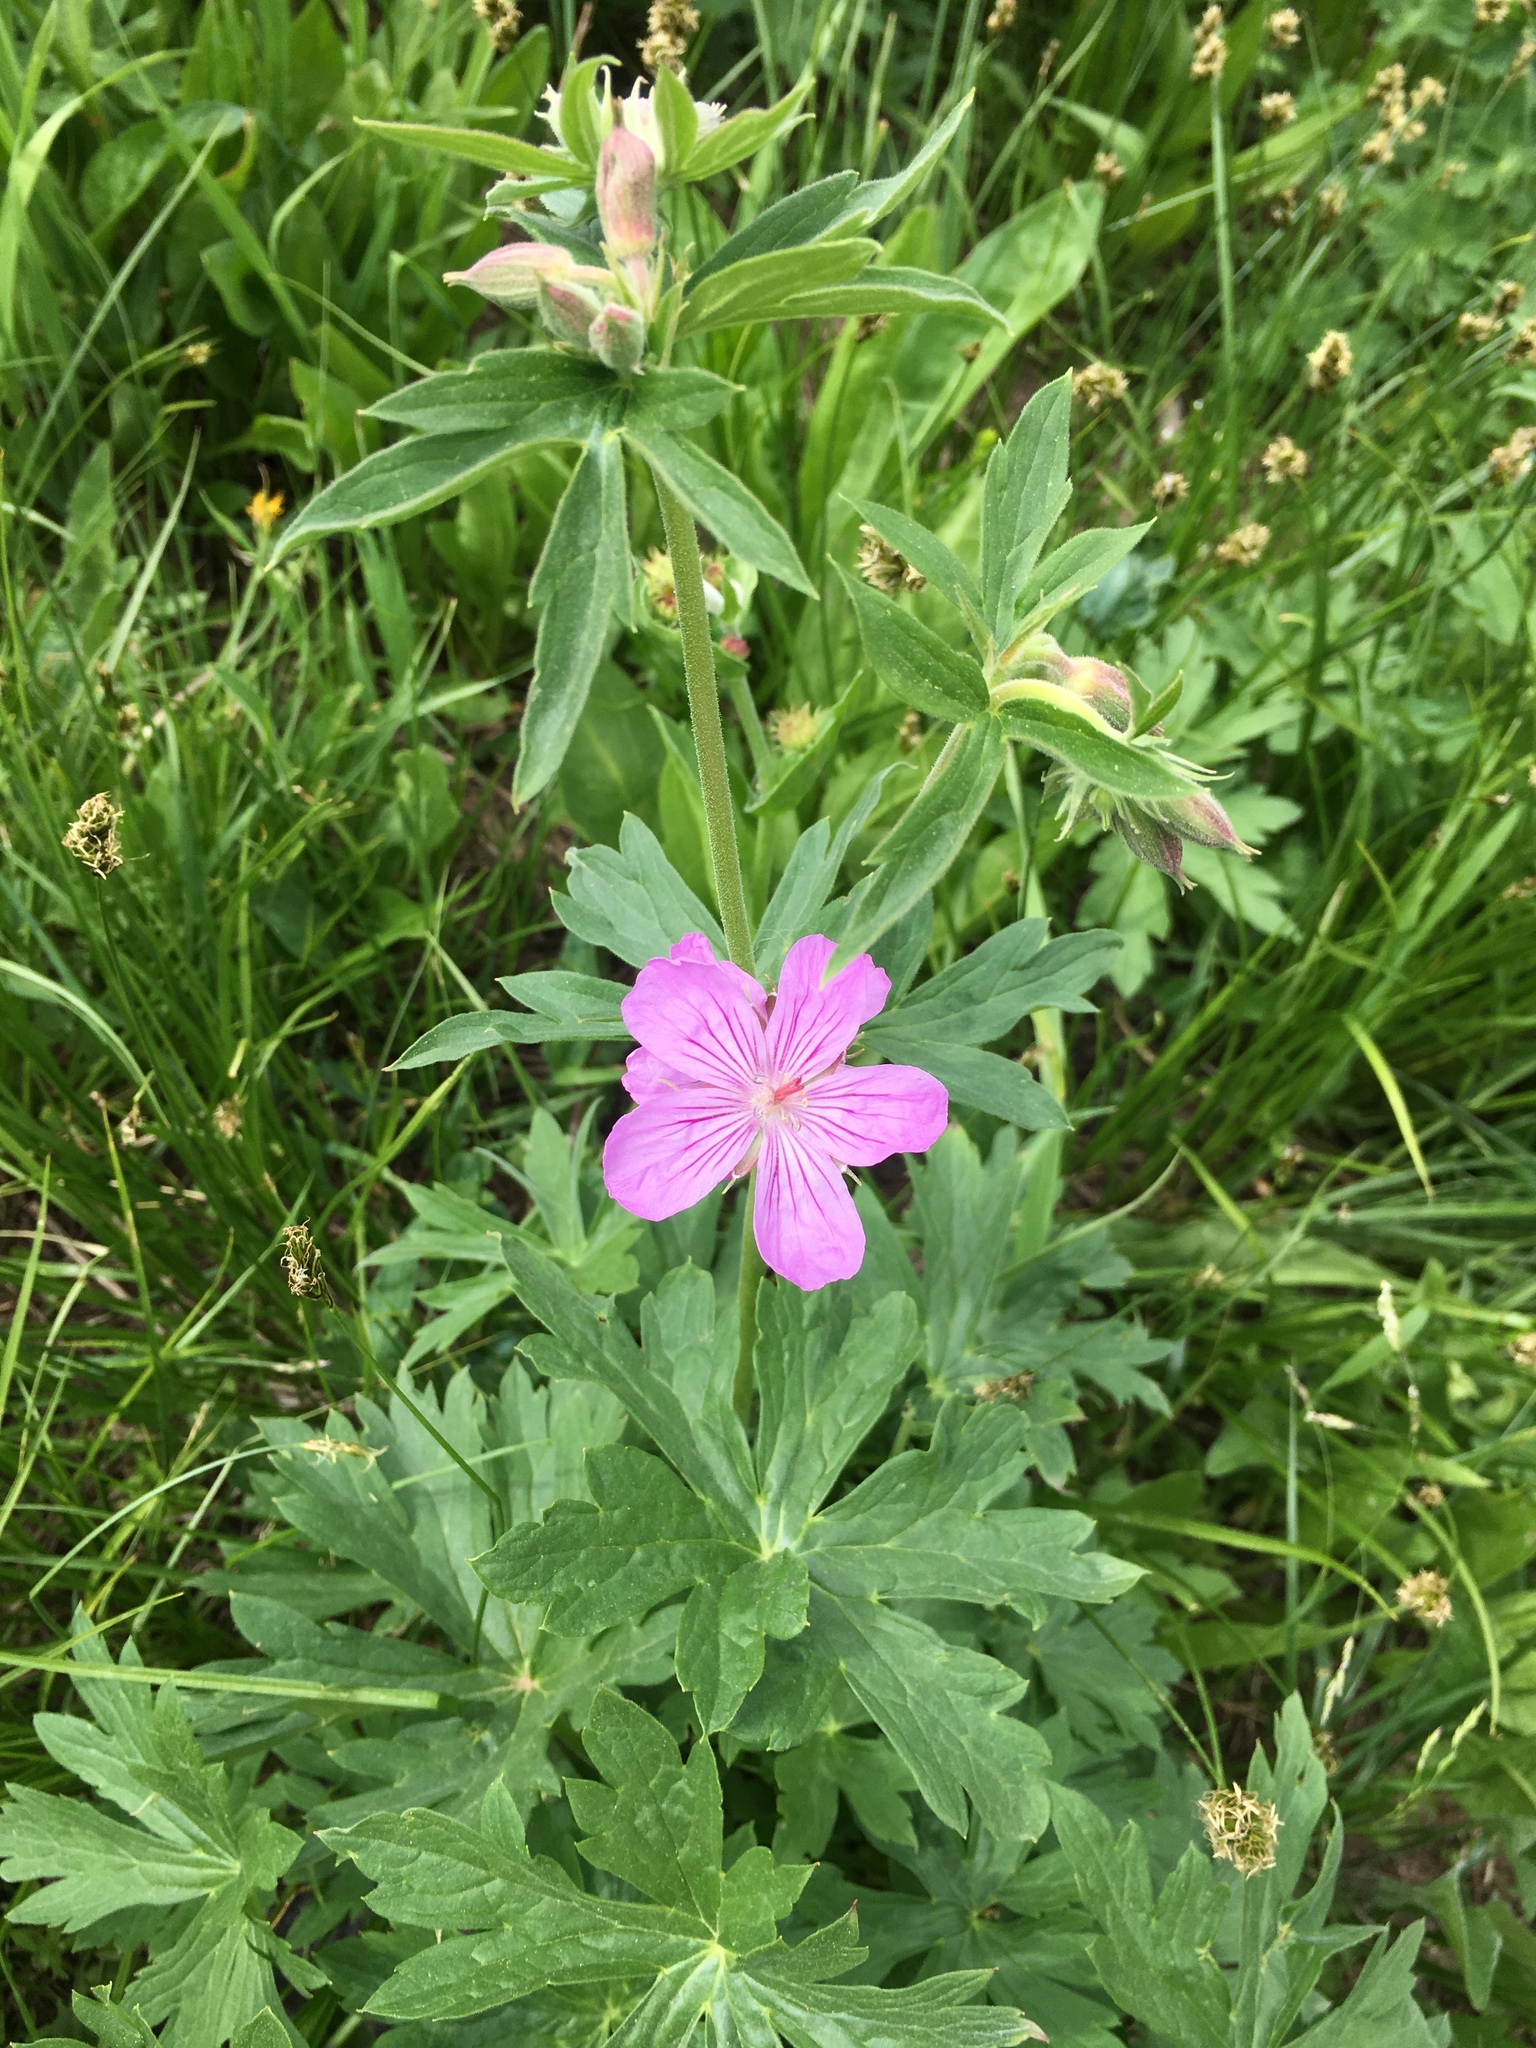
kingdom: Plantae
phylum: Tracheophyta
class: Magnoliopsida
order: Geraniales
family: Geraniaceae
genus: Geranium
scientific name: Geranium viscosissimum
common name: Purple geranium
